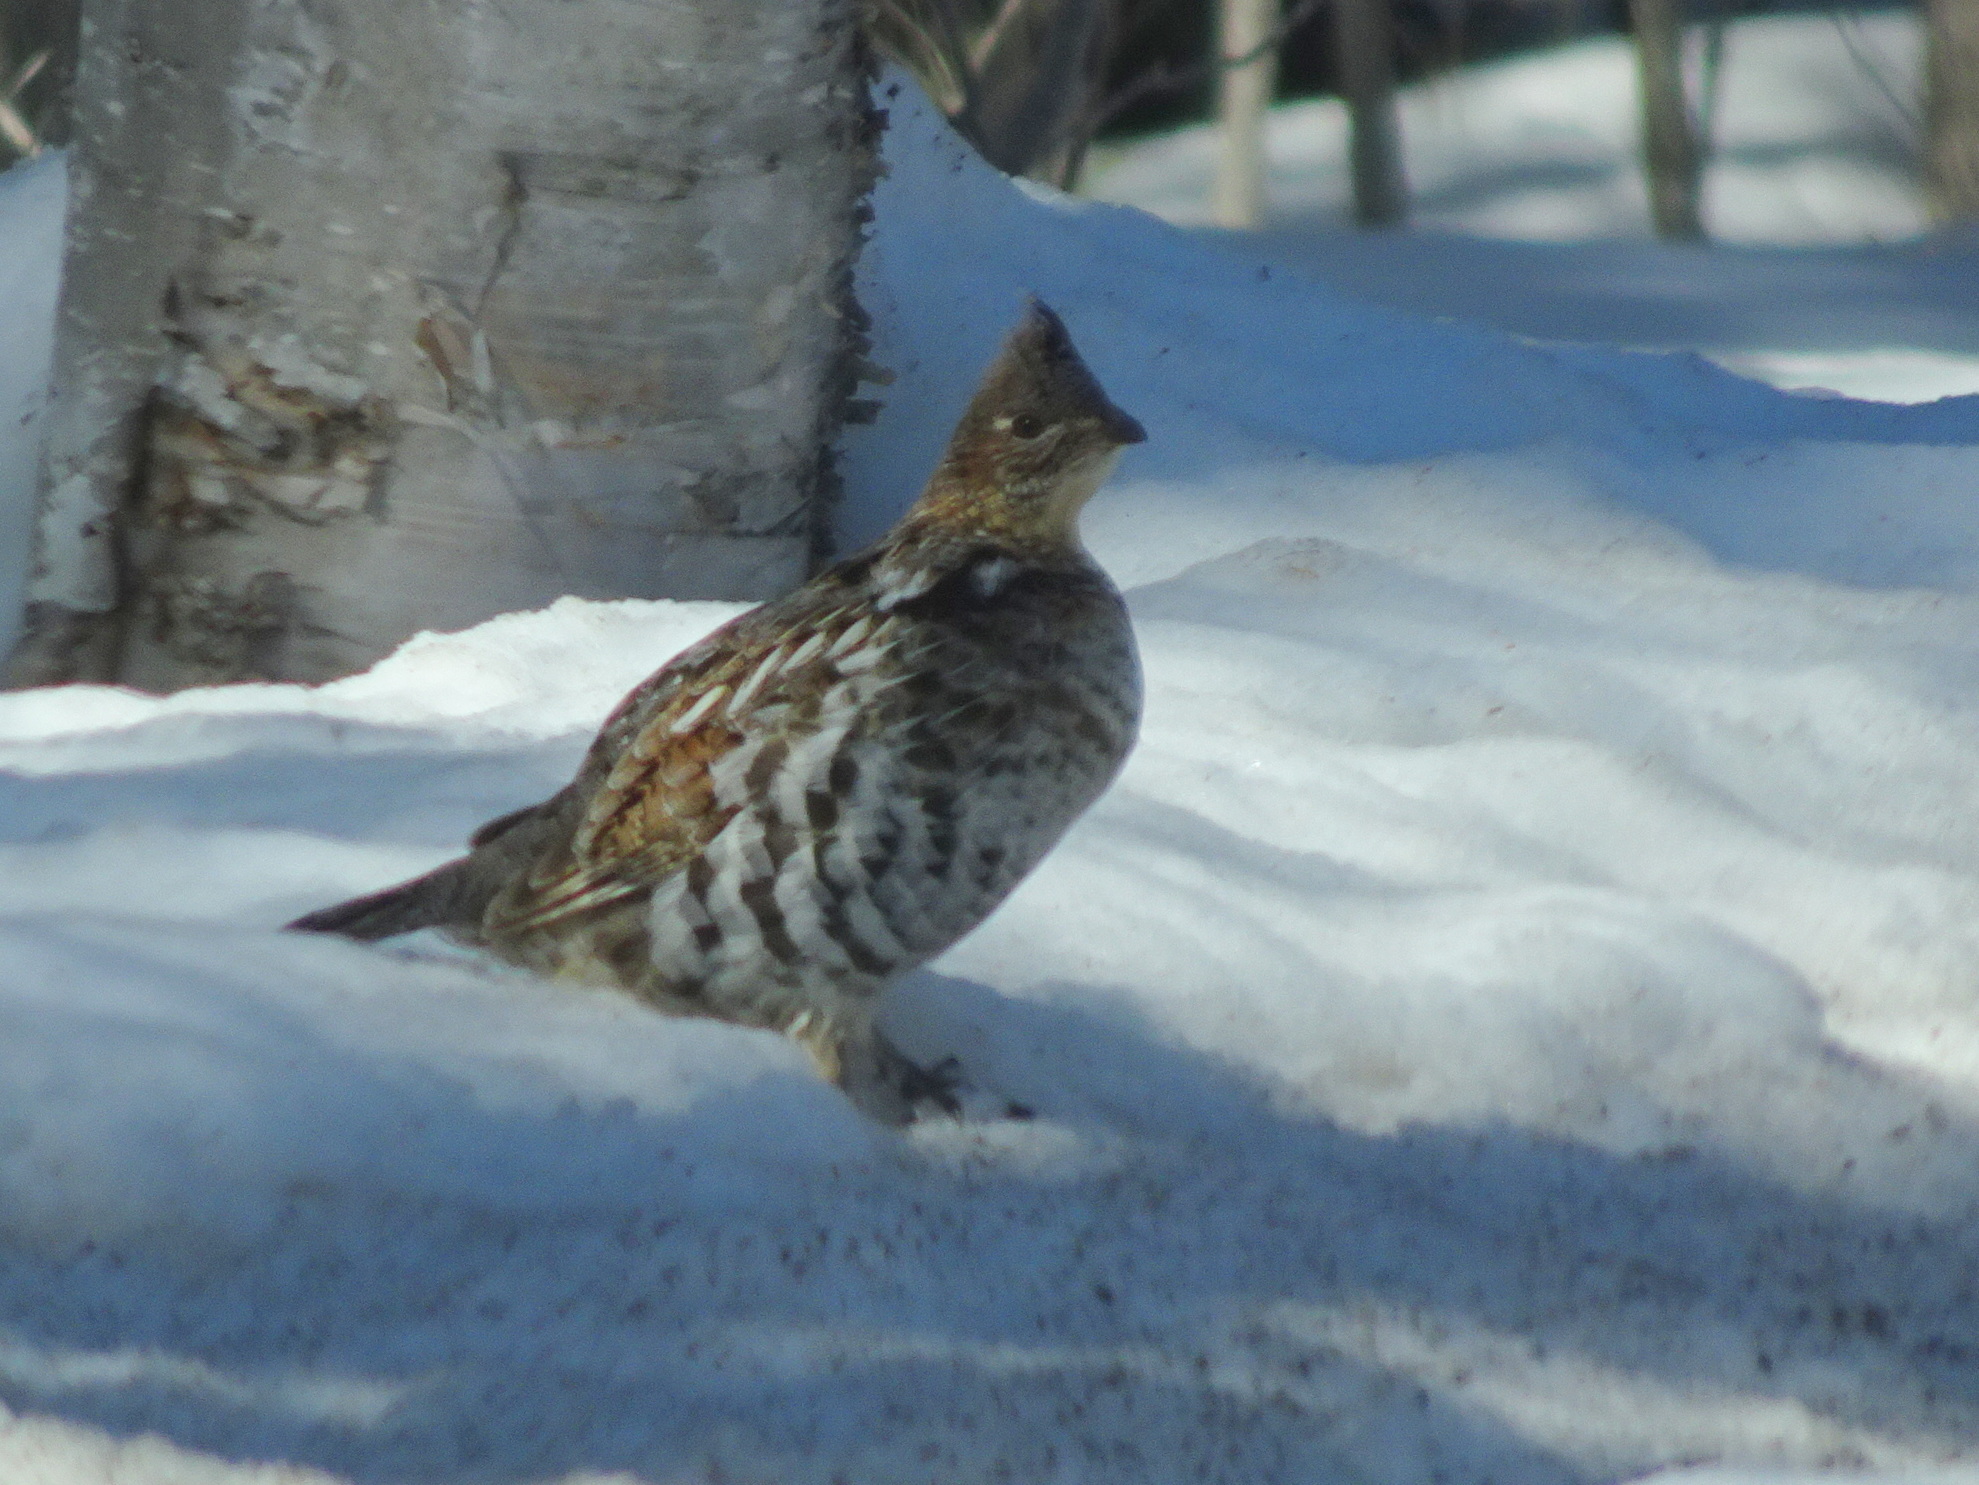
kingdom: Animalia
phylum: Chordata
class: Aves
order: Galliformes
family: Phasianidae
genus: Bonasa
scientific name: Bonasa umbellus
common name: Ruffed grouse
